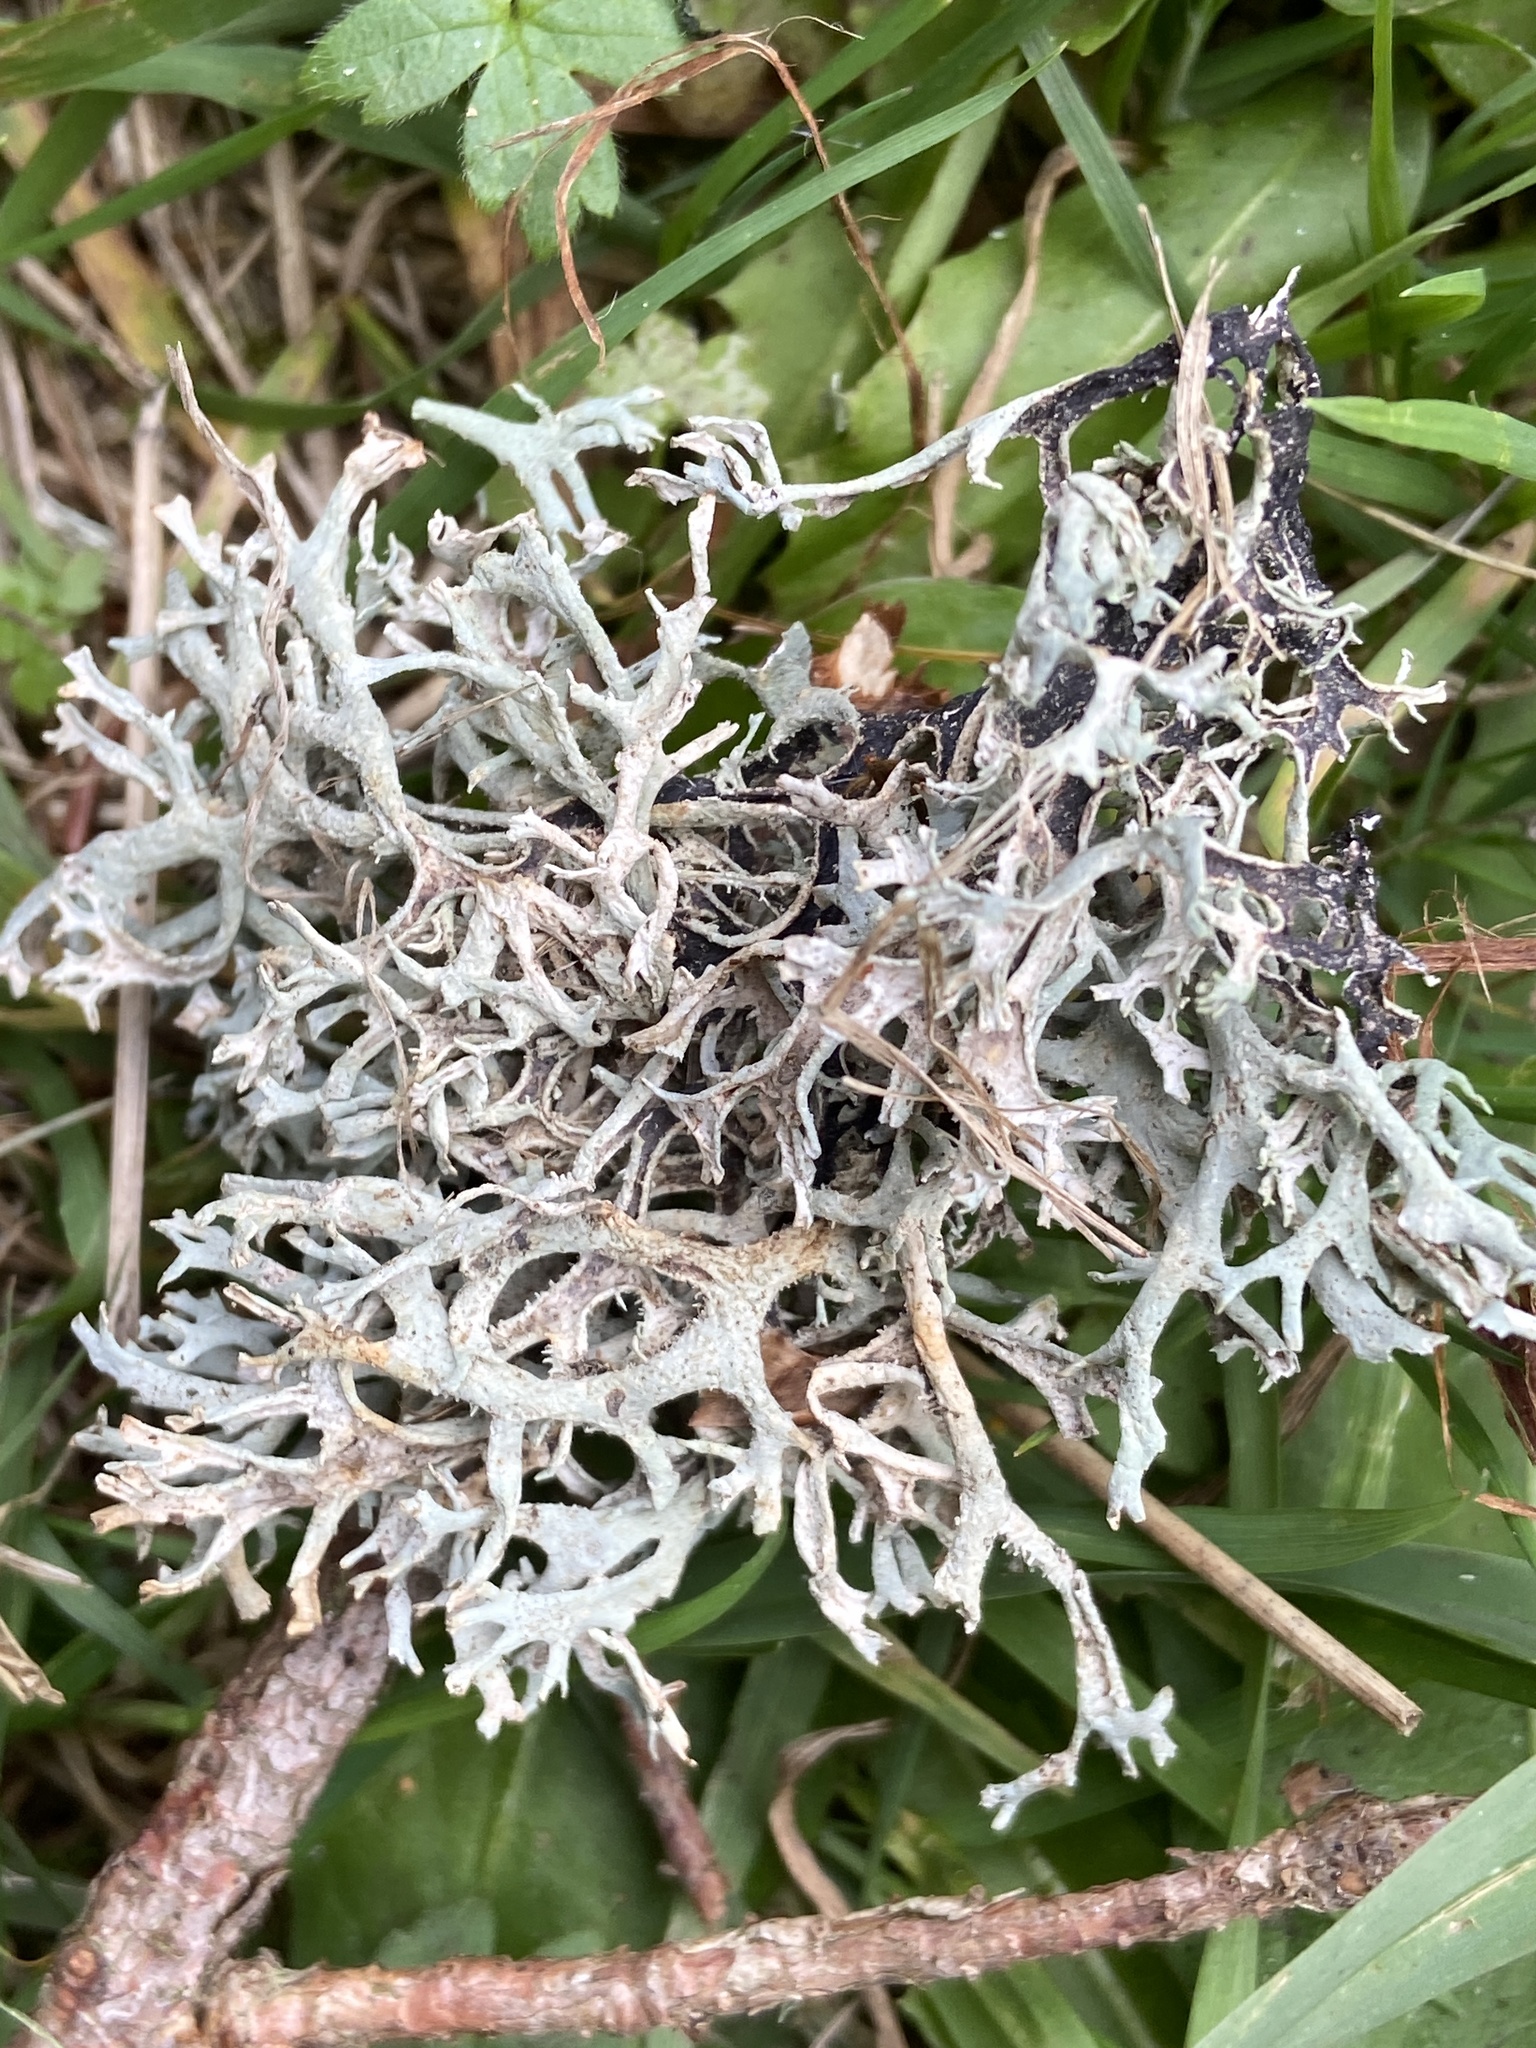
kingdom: Fungi
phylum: Ascomycota
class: Lecanoromycetes
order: Lecanorales
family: Parmeliaceae
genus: Pseudevernia
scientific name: Pseudevernia furfuracea
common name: Tree moss
